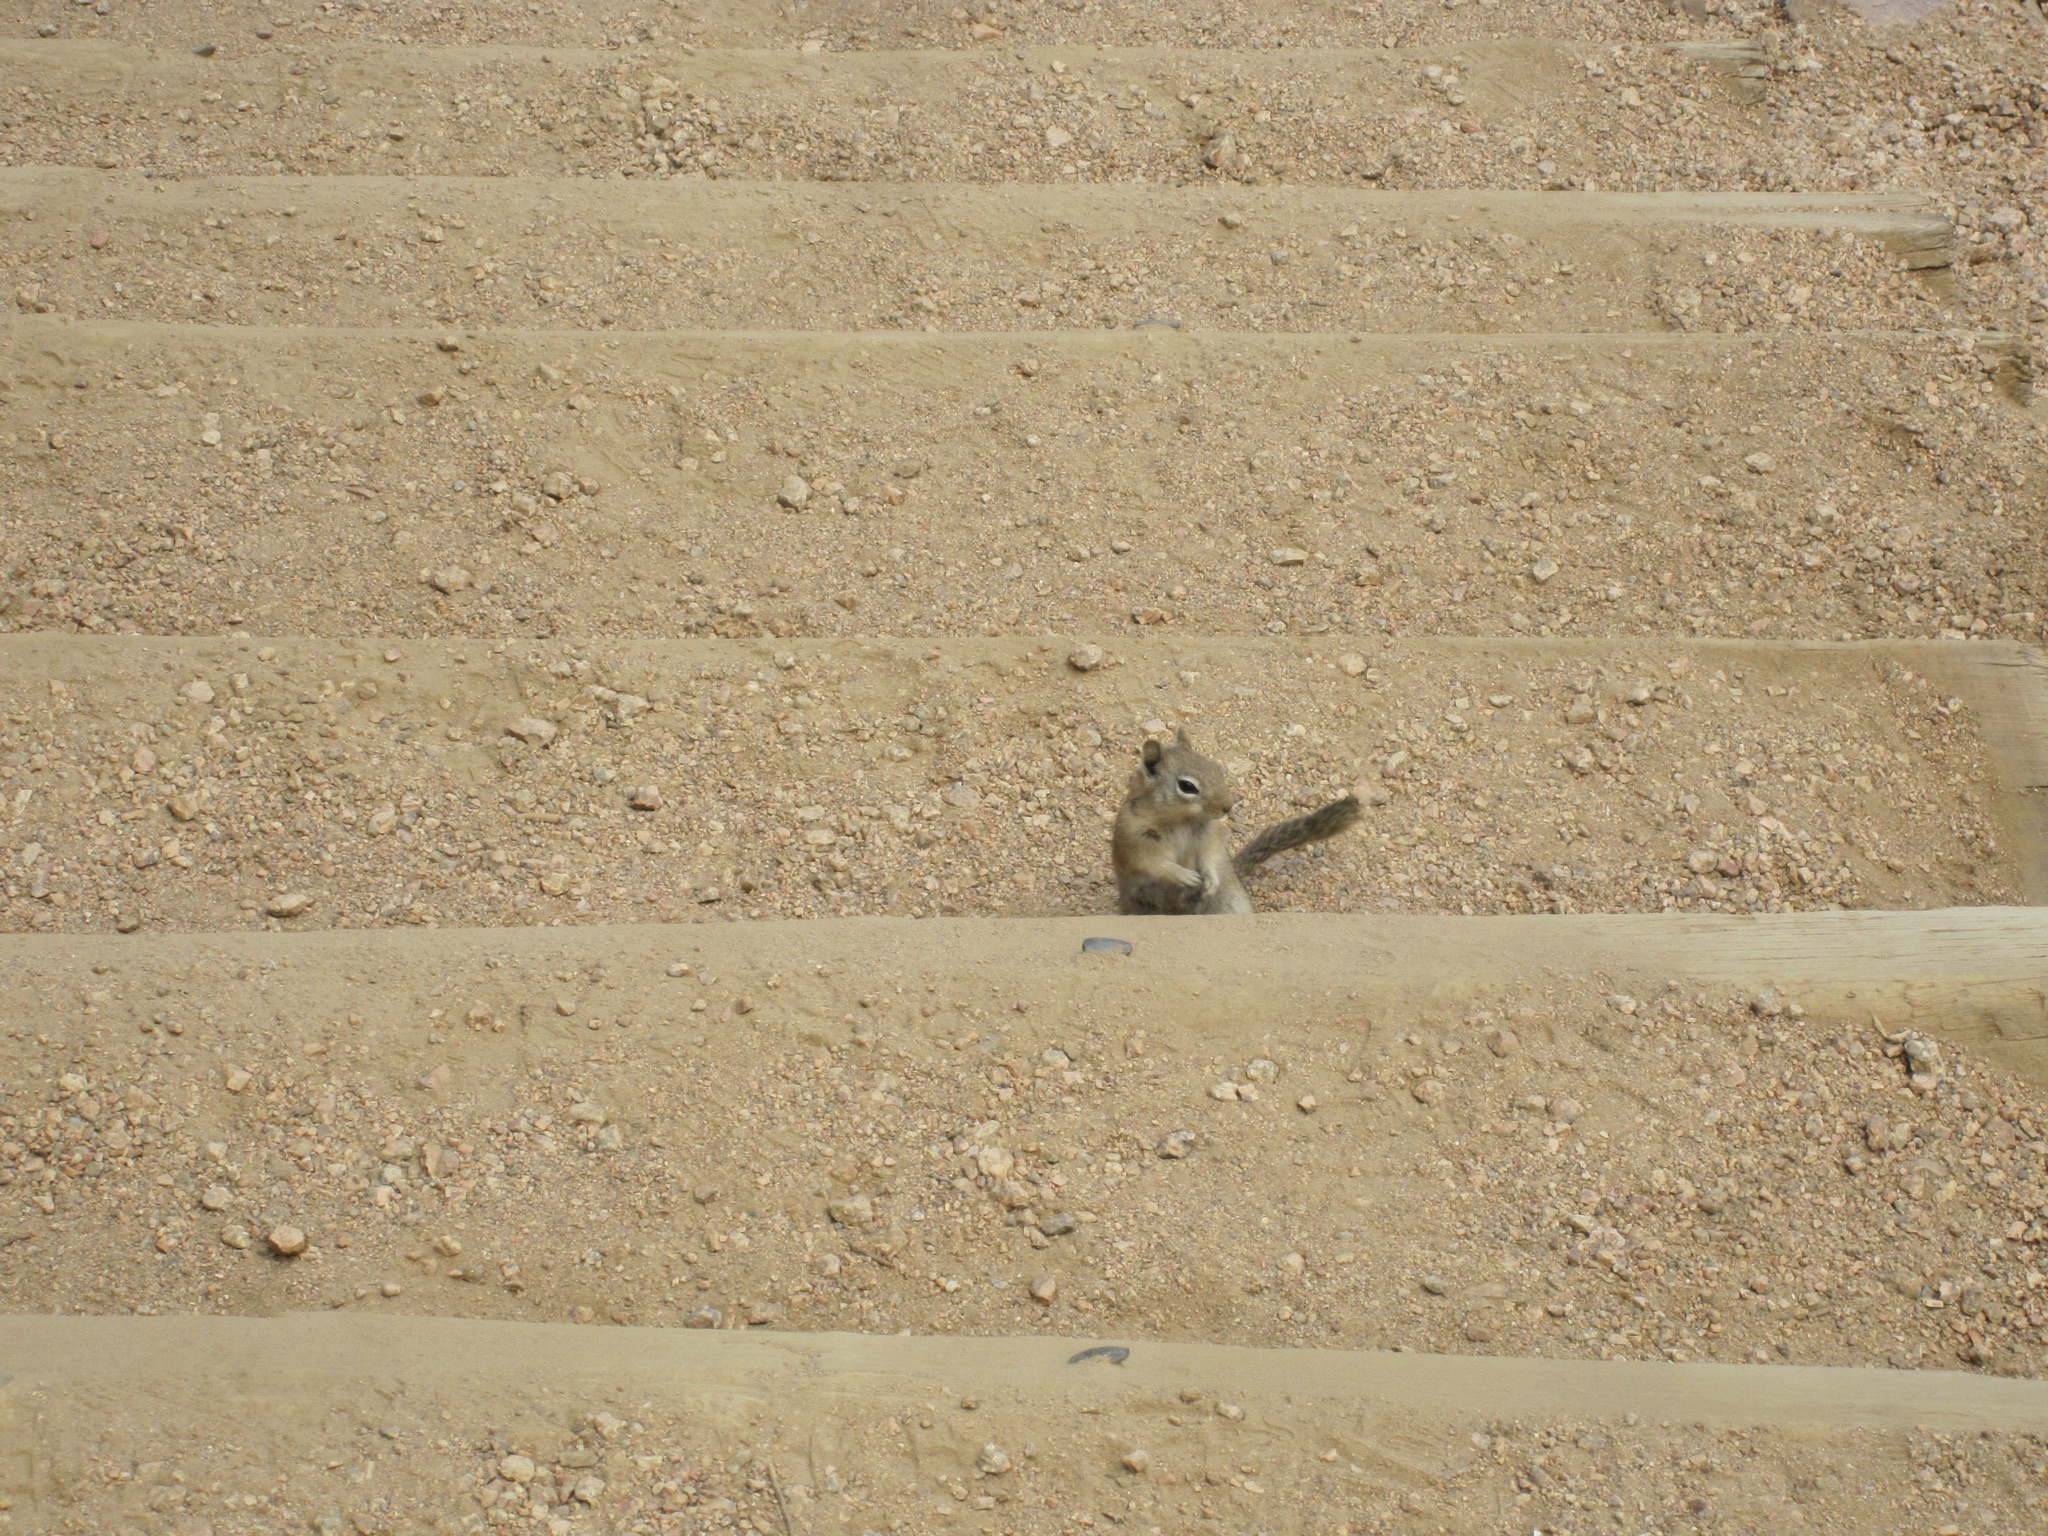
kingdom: Animalia
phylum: Chordata
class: Mammalia
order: Rodentia
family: Sciuridae
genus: Callospermophilus
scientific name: Callospermophilus lateralis
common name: Golden-mantled ground squirrel
